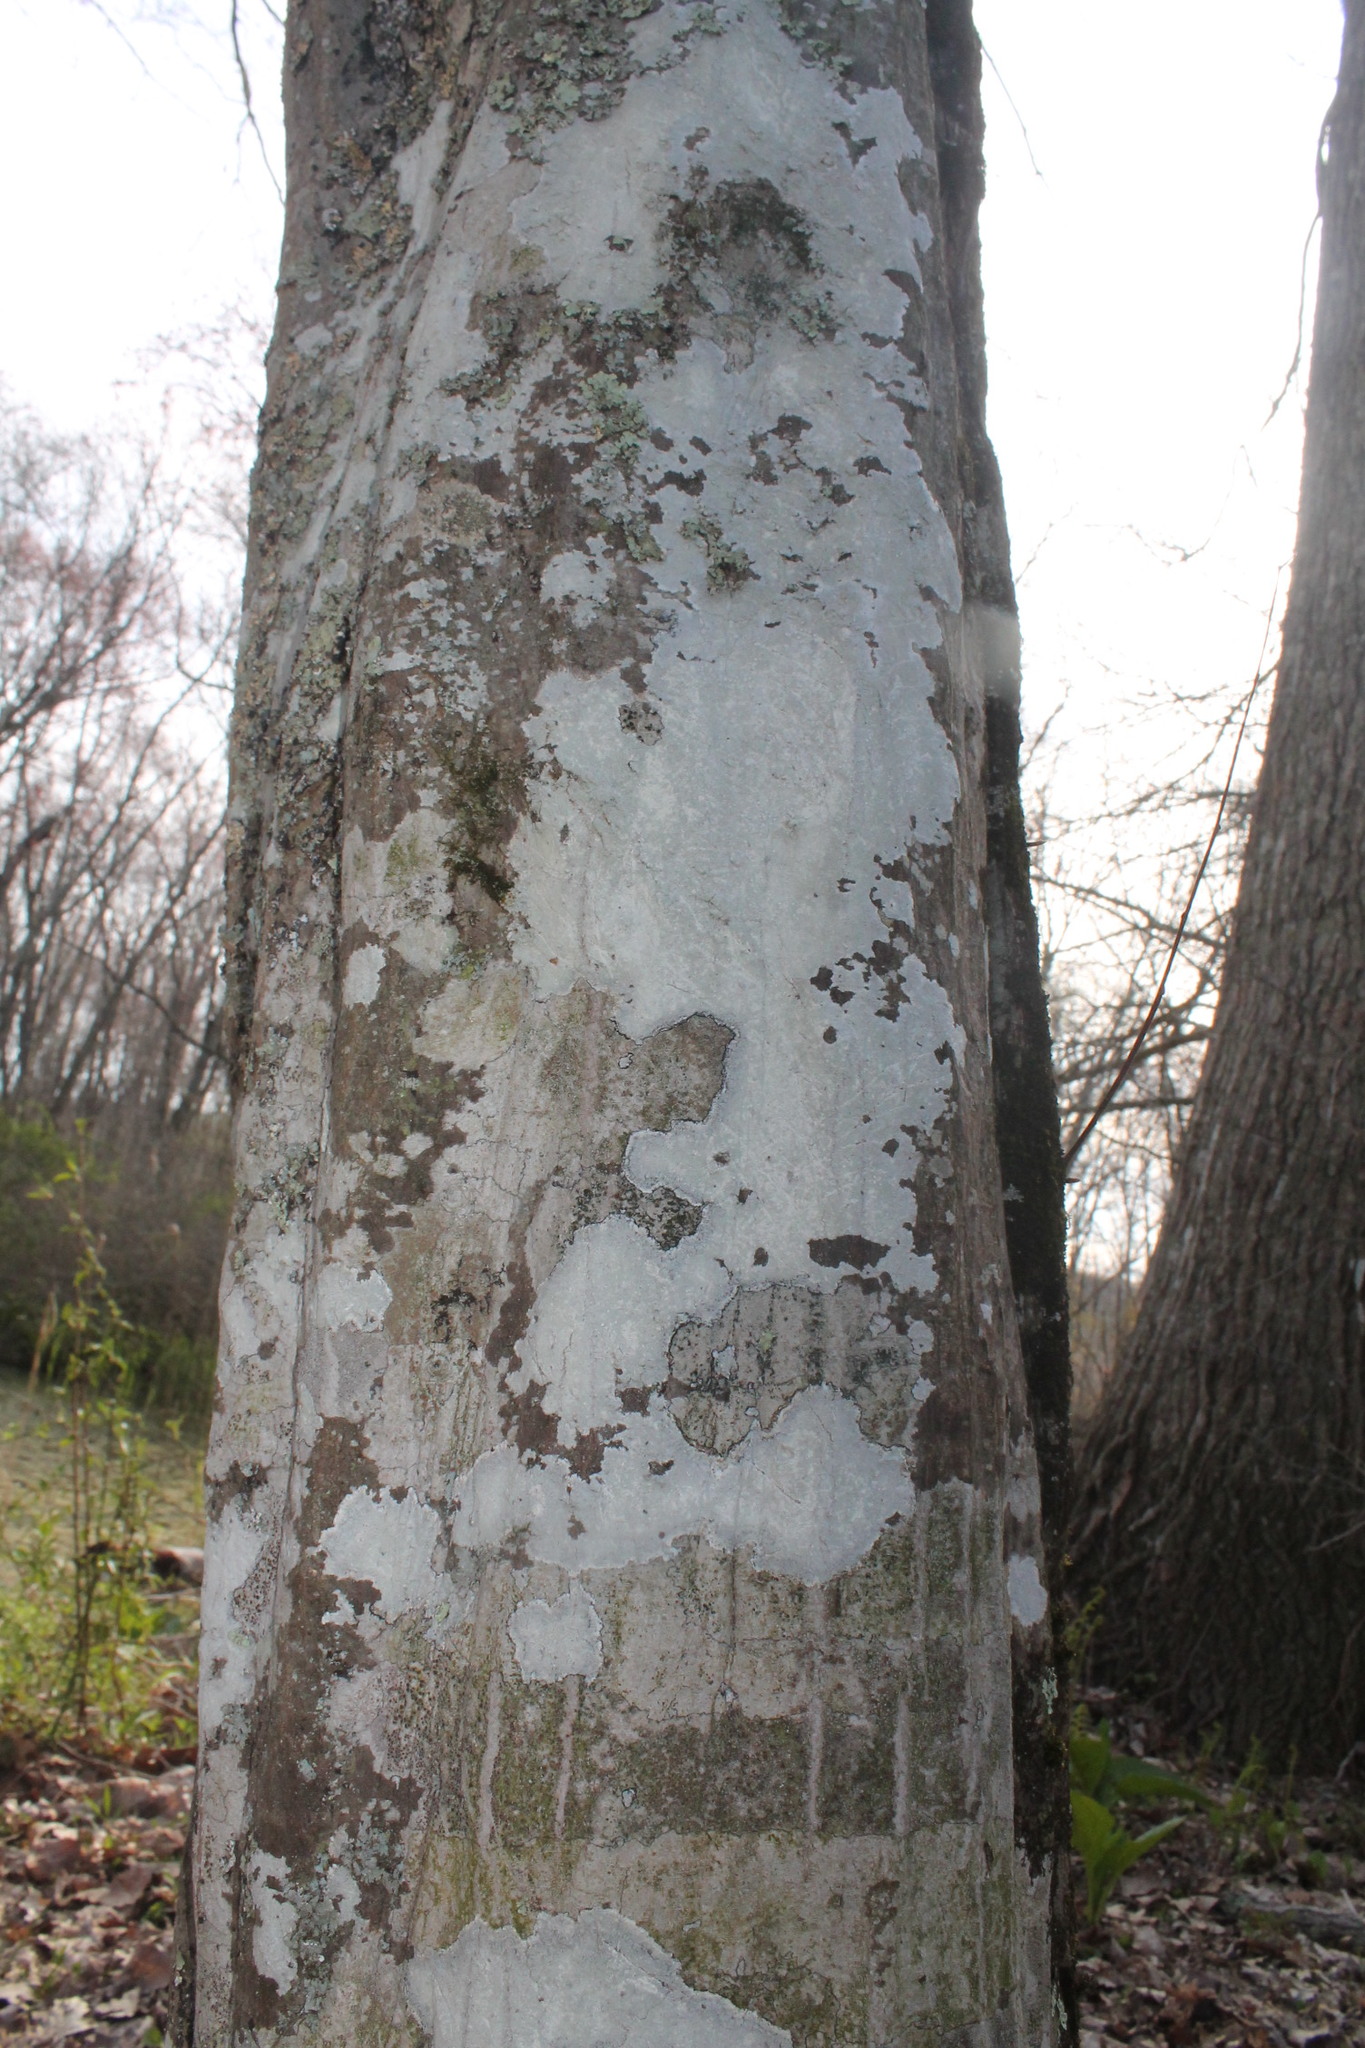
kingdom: Fungi
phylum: Ascomycota
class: Lecanoromycetes
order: Pertusariales
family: Pertusariaceae
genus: Verseghya
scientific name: Verseghya thysanophora
